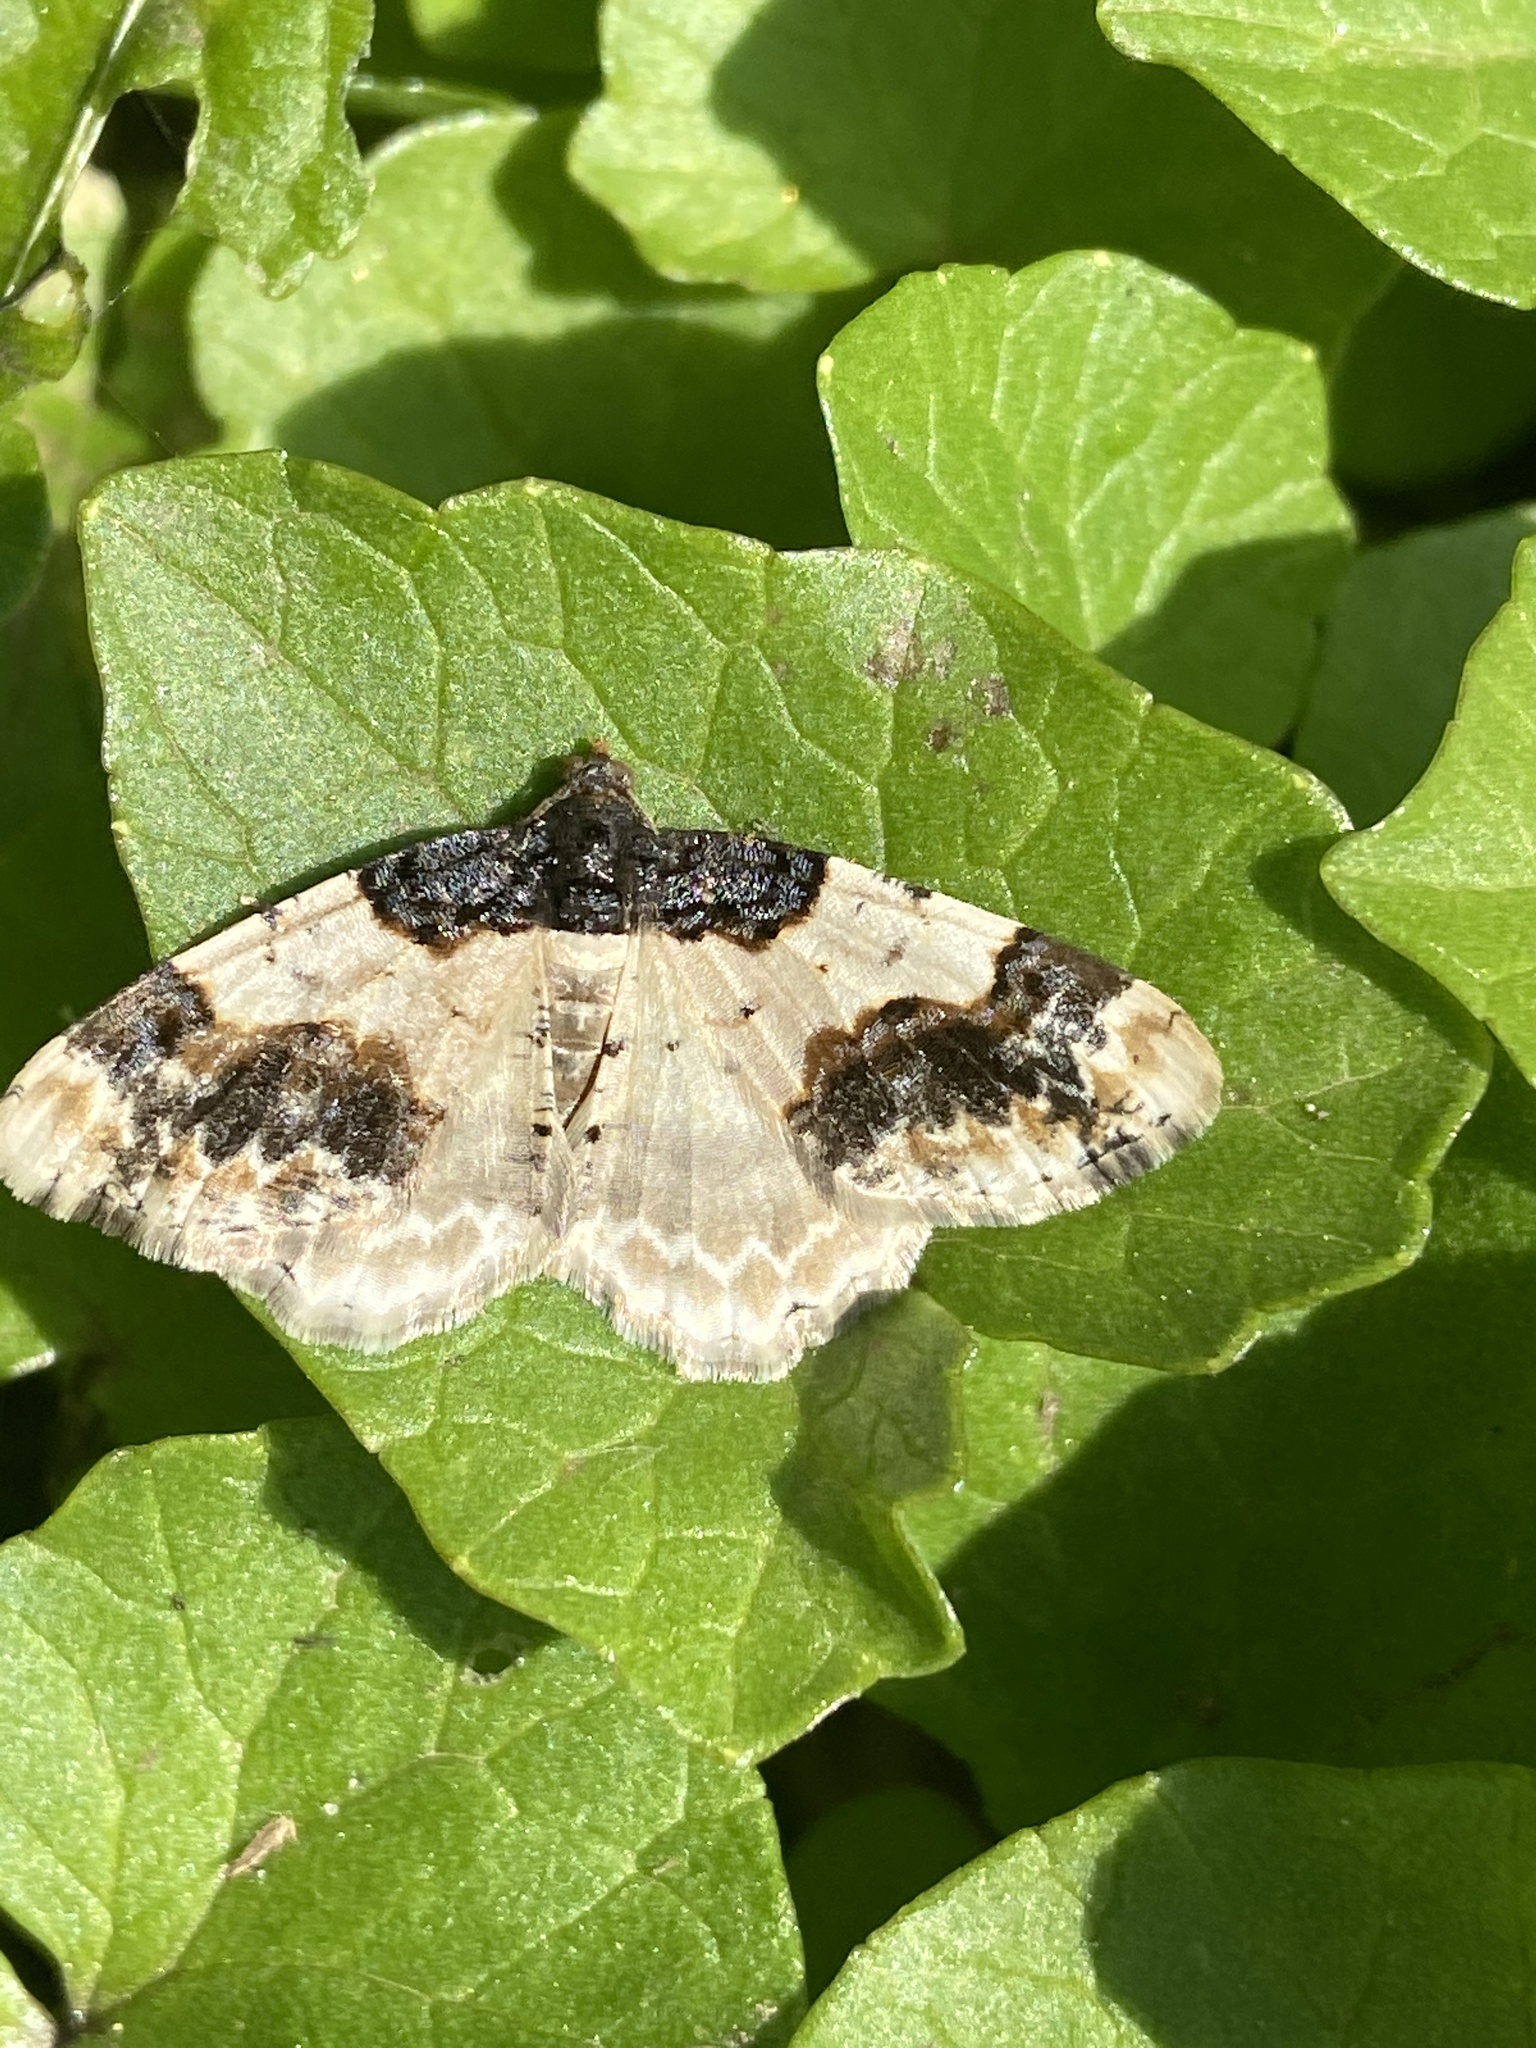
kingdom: Animalia
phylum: Arthropoda
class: Insecta
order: Lepidoptera
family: Geometridae
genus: Ligdia
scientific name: Ligdia adustata
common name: Scorched carpet
